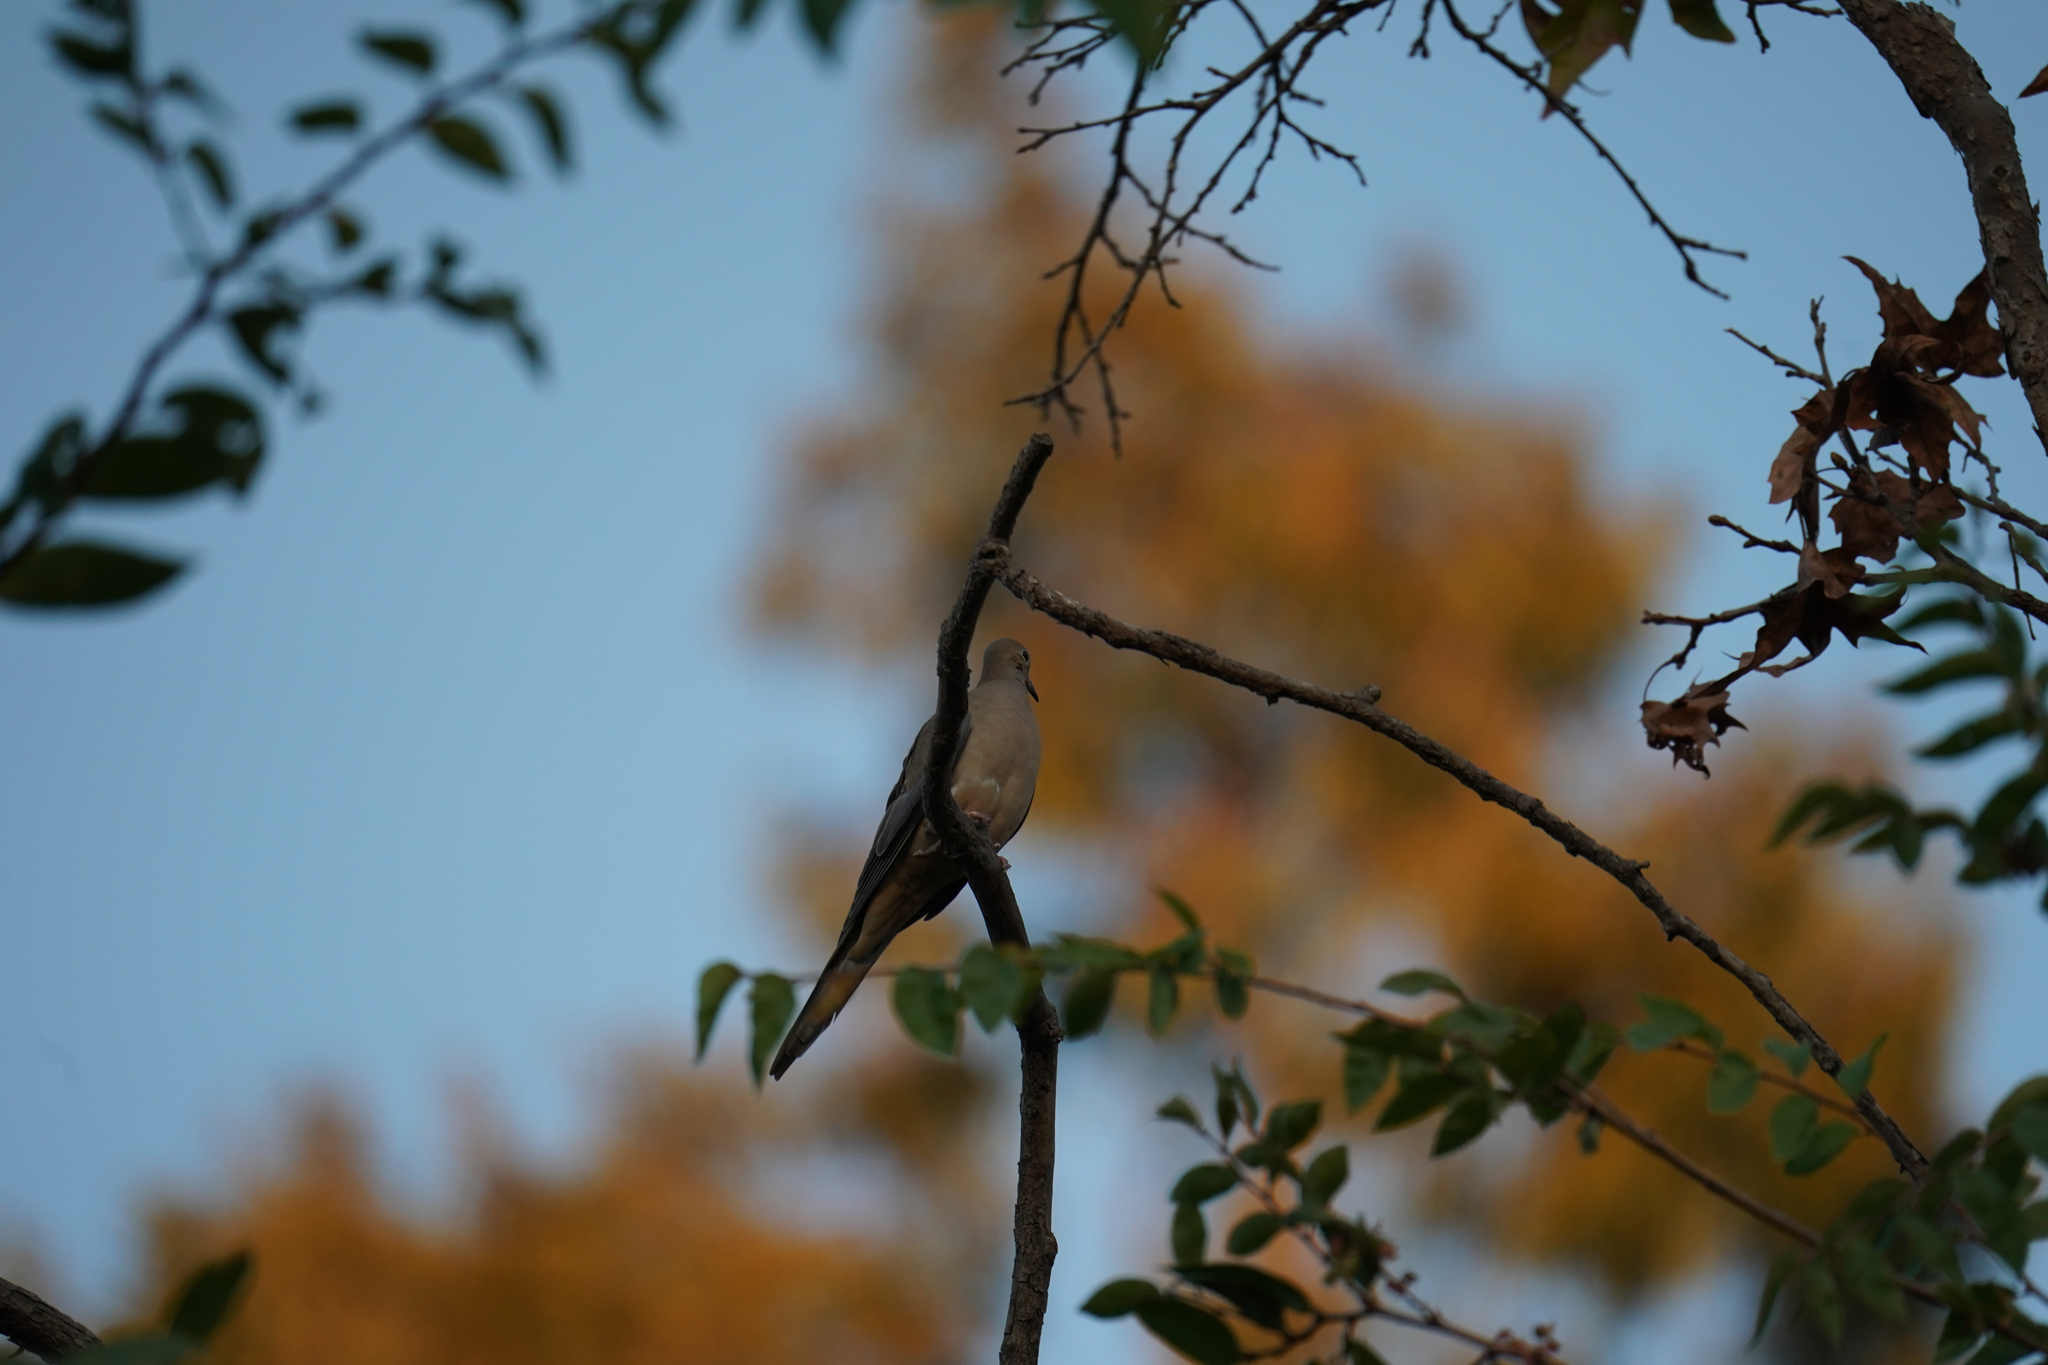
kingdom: Animalia
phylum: Chordata
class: Aves
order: Columbiformes
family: Columbidae
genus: Zenaida
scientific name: Zenaida macroura
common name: Mourning dove
